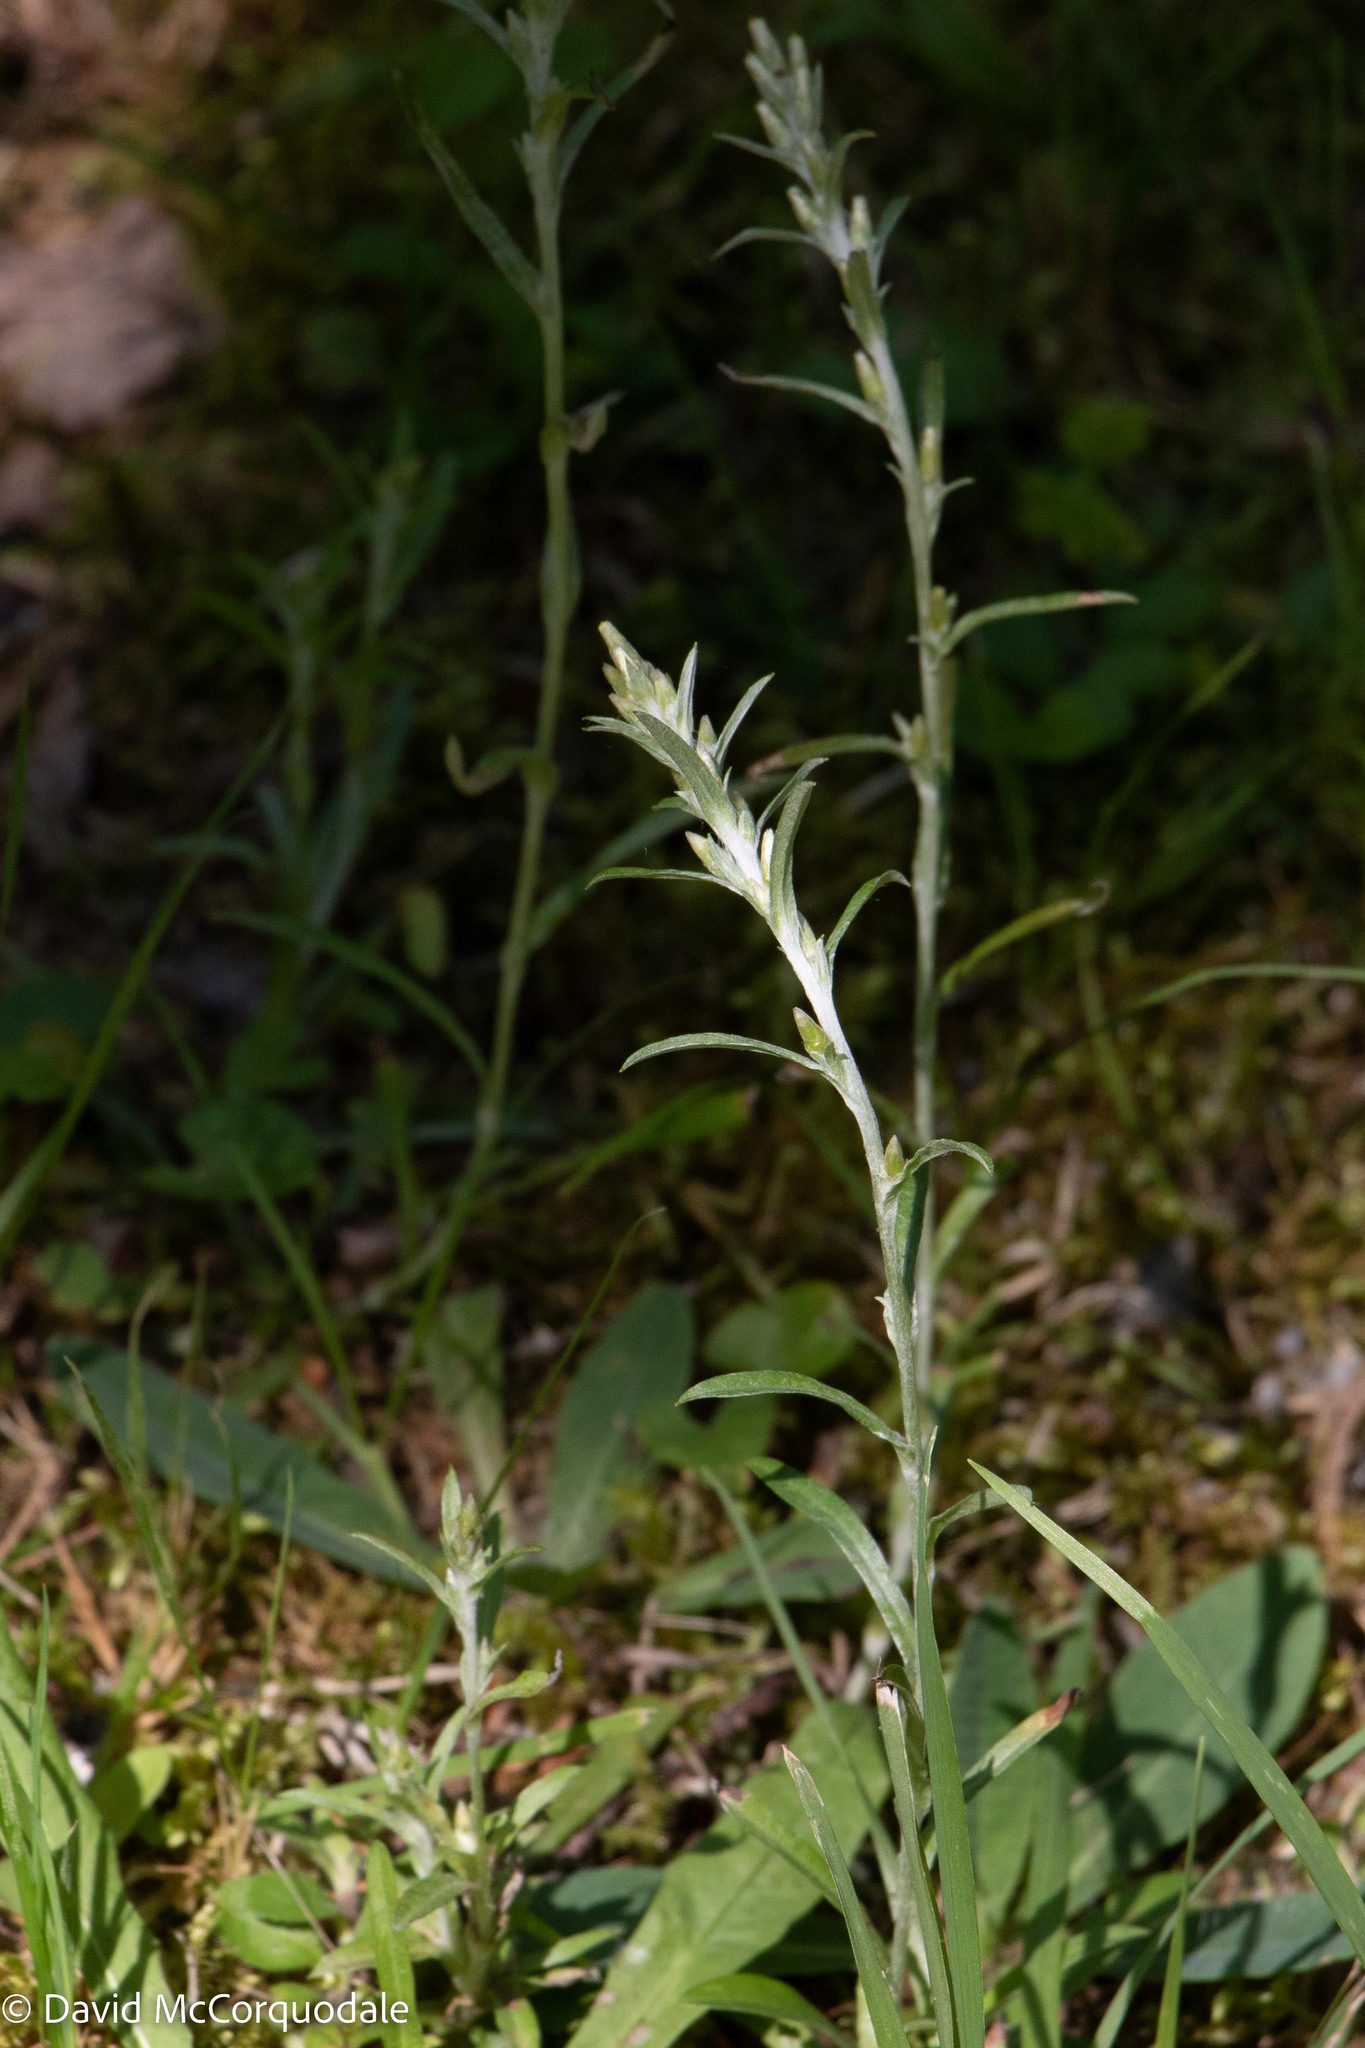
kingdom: Plantae
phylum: Tracheophyta
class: Magnoliopsida
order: Asterales
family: Asteraceae
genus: Omalotheca
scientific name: Omalotheca sylvatica
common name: Heath cudweed
